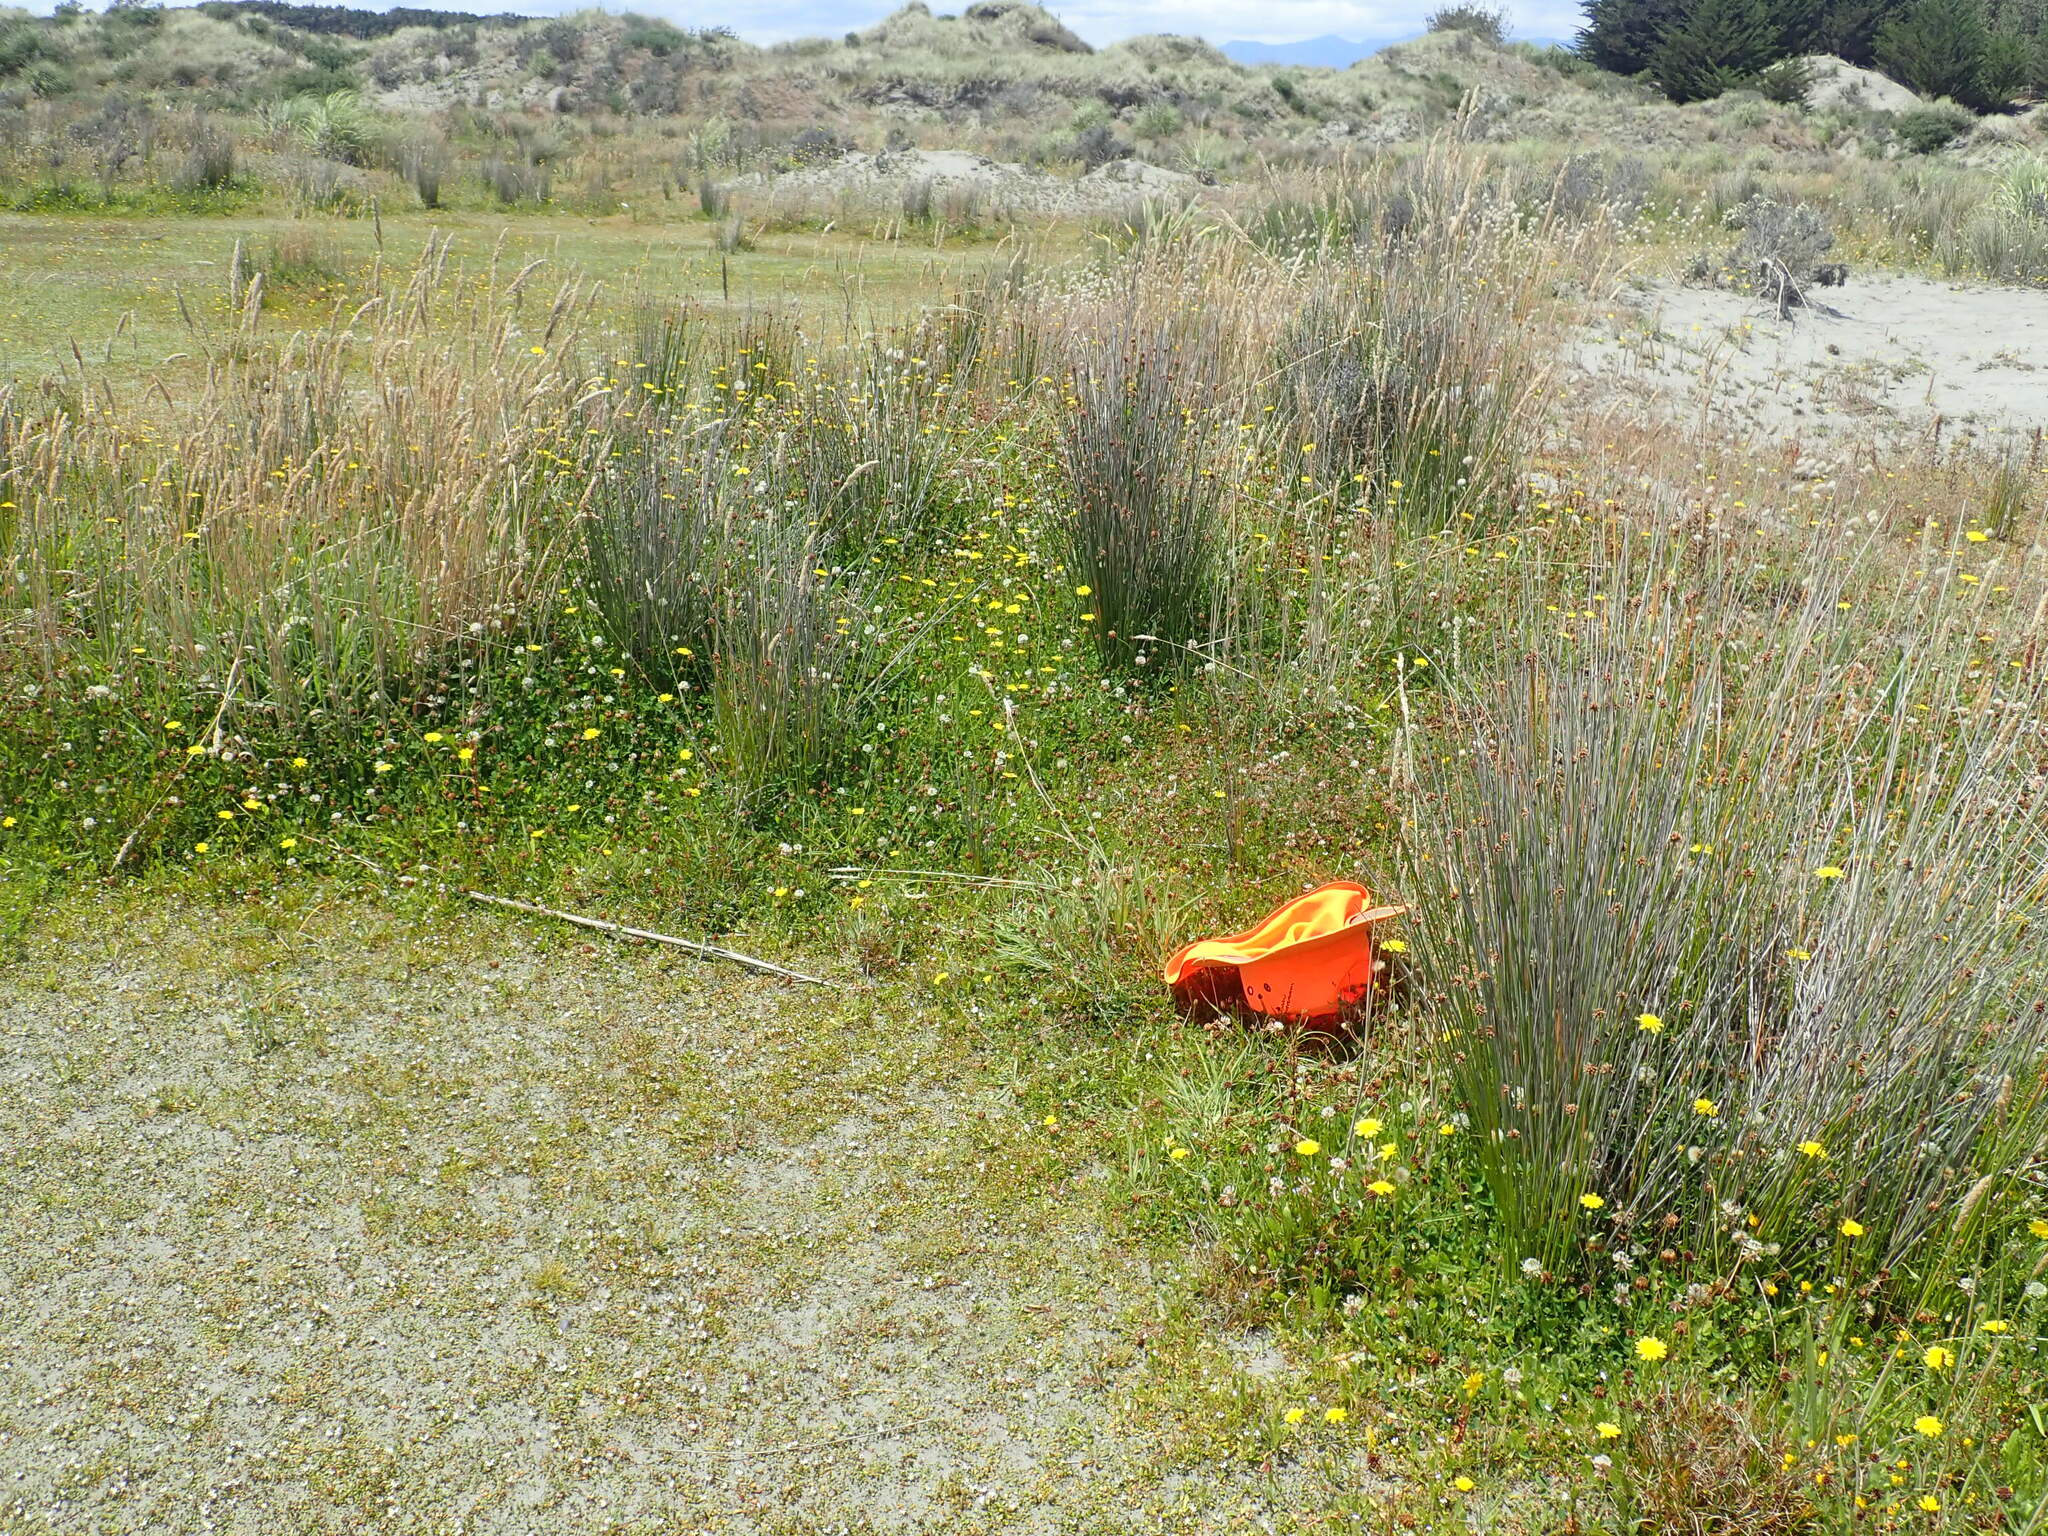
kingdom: Plantae
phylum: Tracheophyta
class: Magnoliopsida
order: Rosales
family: Rosaceae
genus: Acaena
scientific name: Acaena novae-zelandiae
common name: Pirri-pirri-bur
